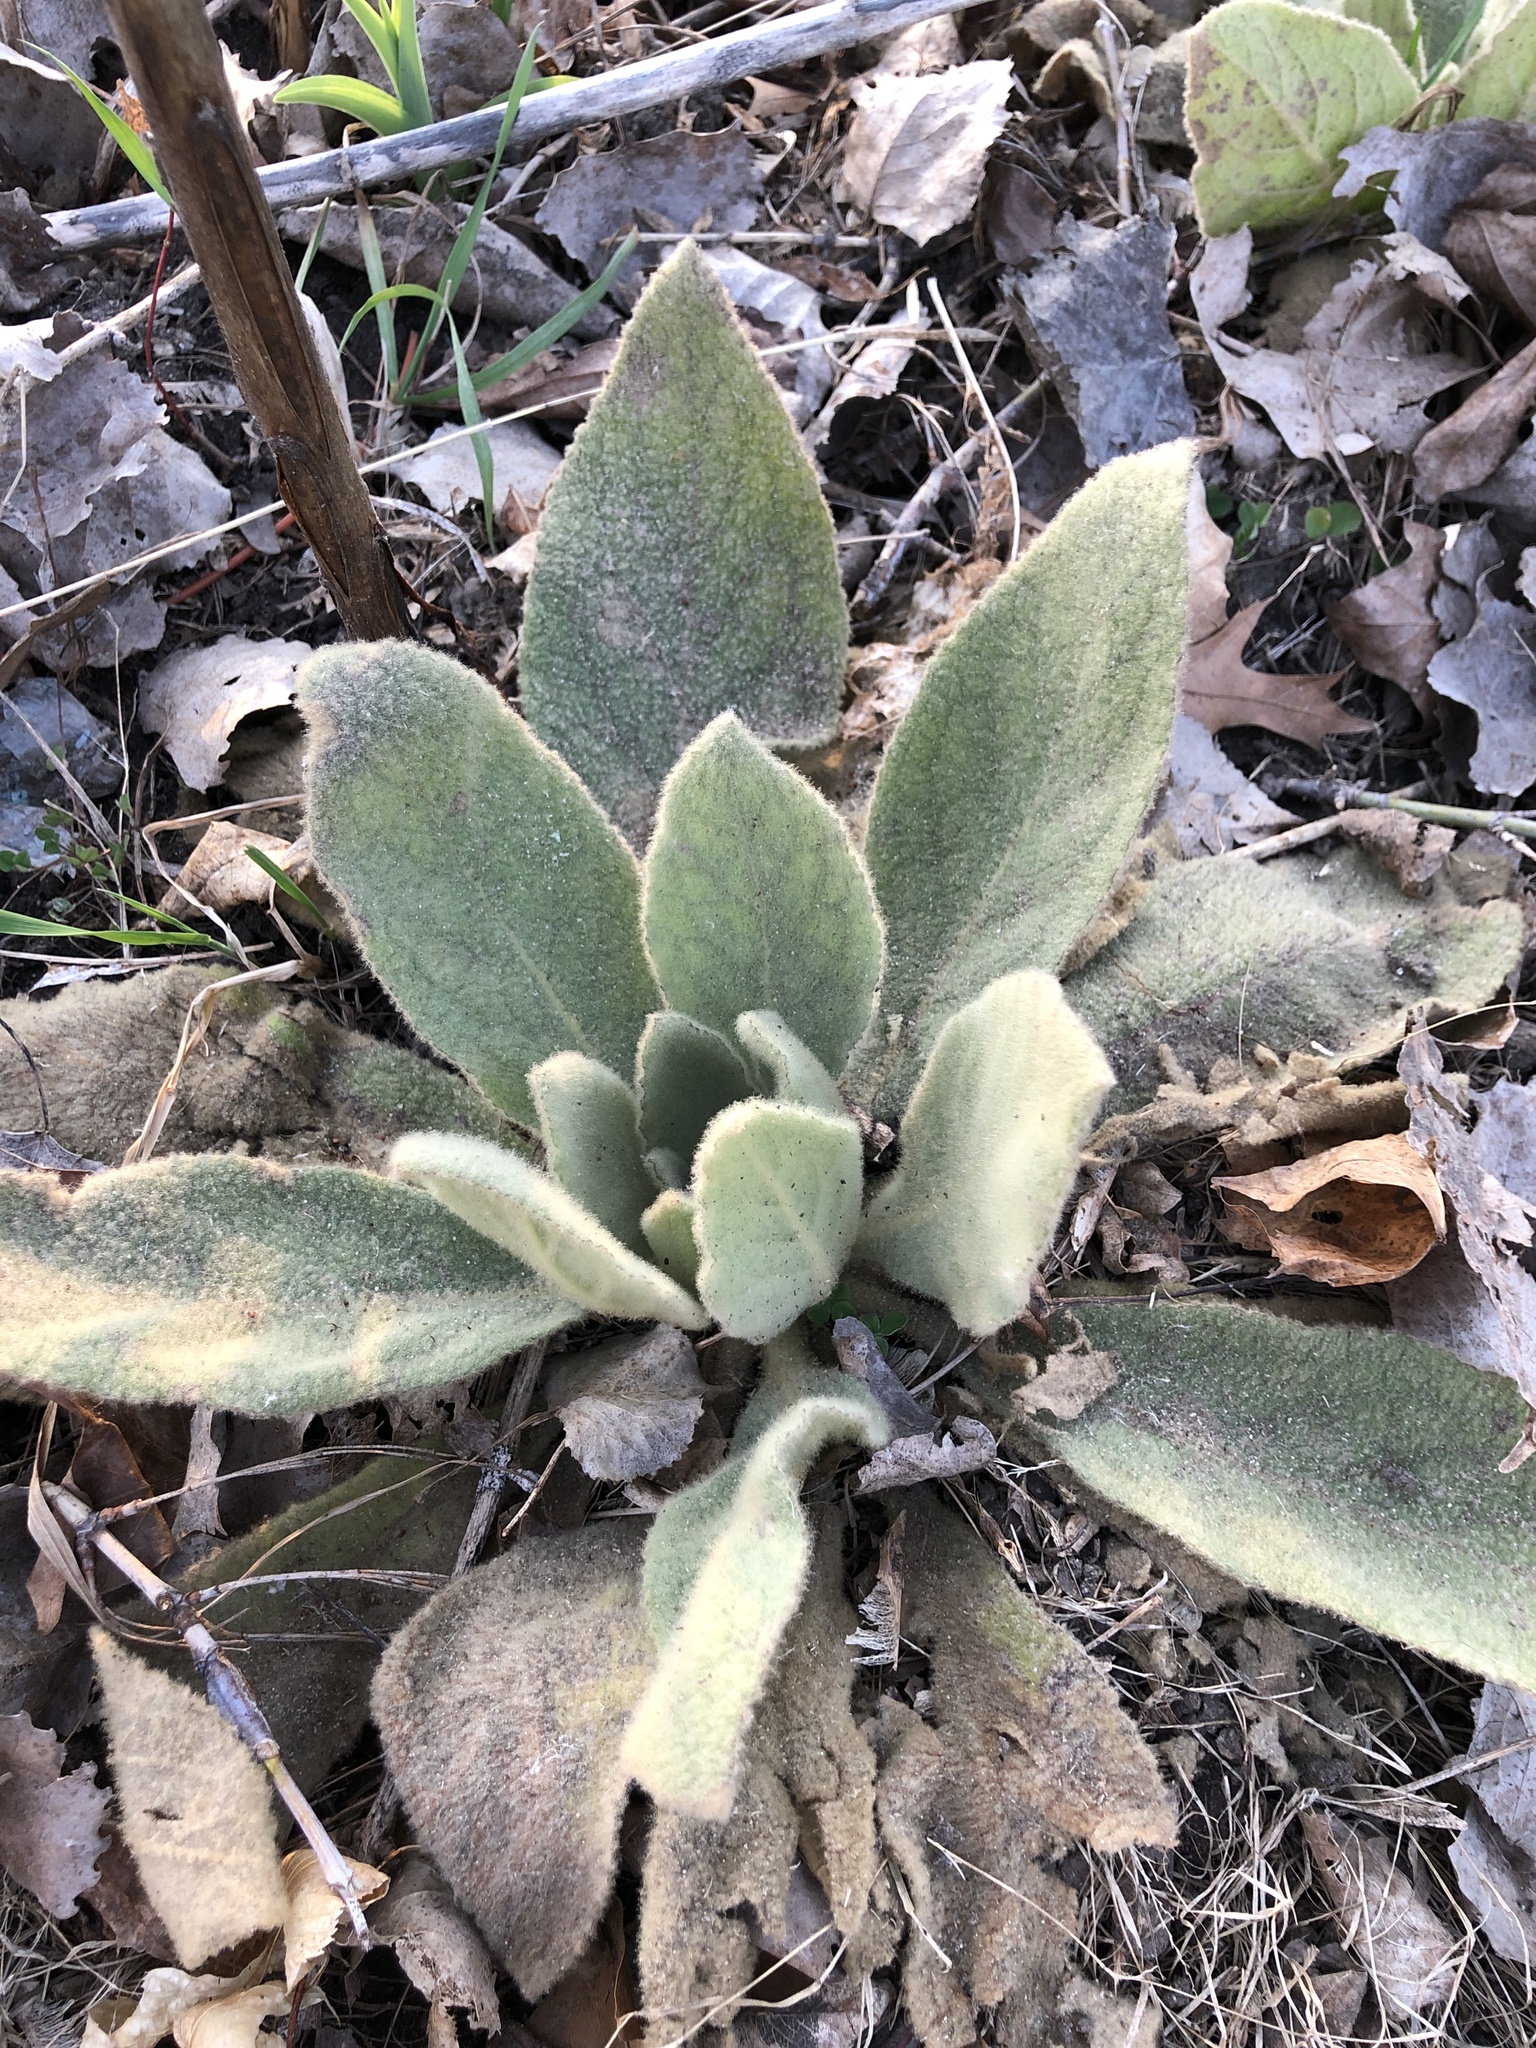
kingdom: Plantae
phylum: Tracheophyta
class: Magnoliopsida
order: Lamiales
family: Scrophulariaceae
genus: Verbascum
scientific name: Verbascum thapsus
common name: Common mullein
